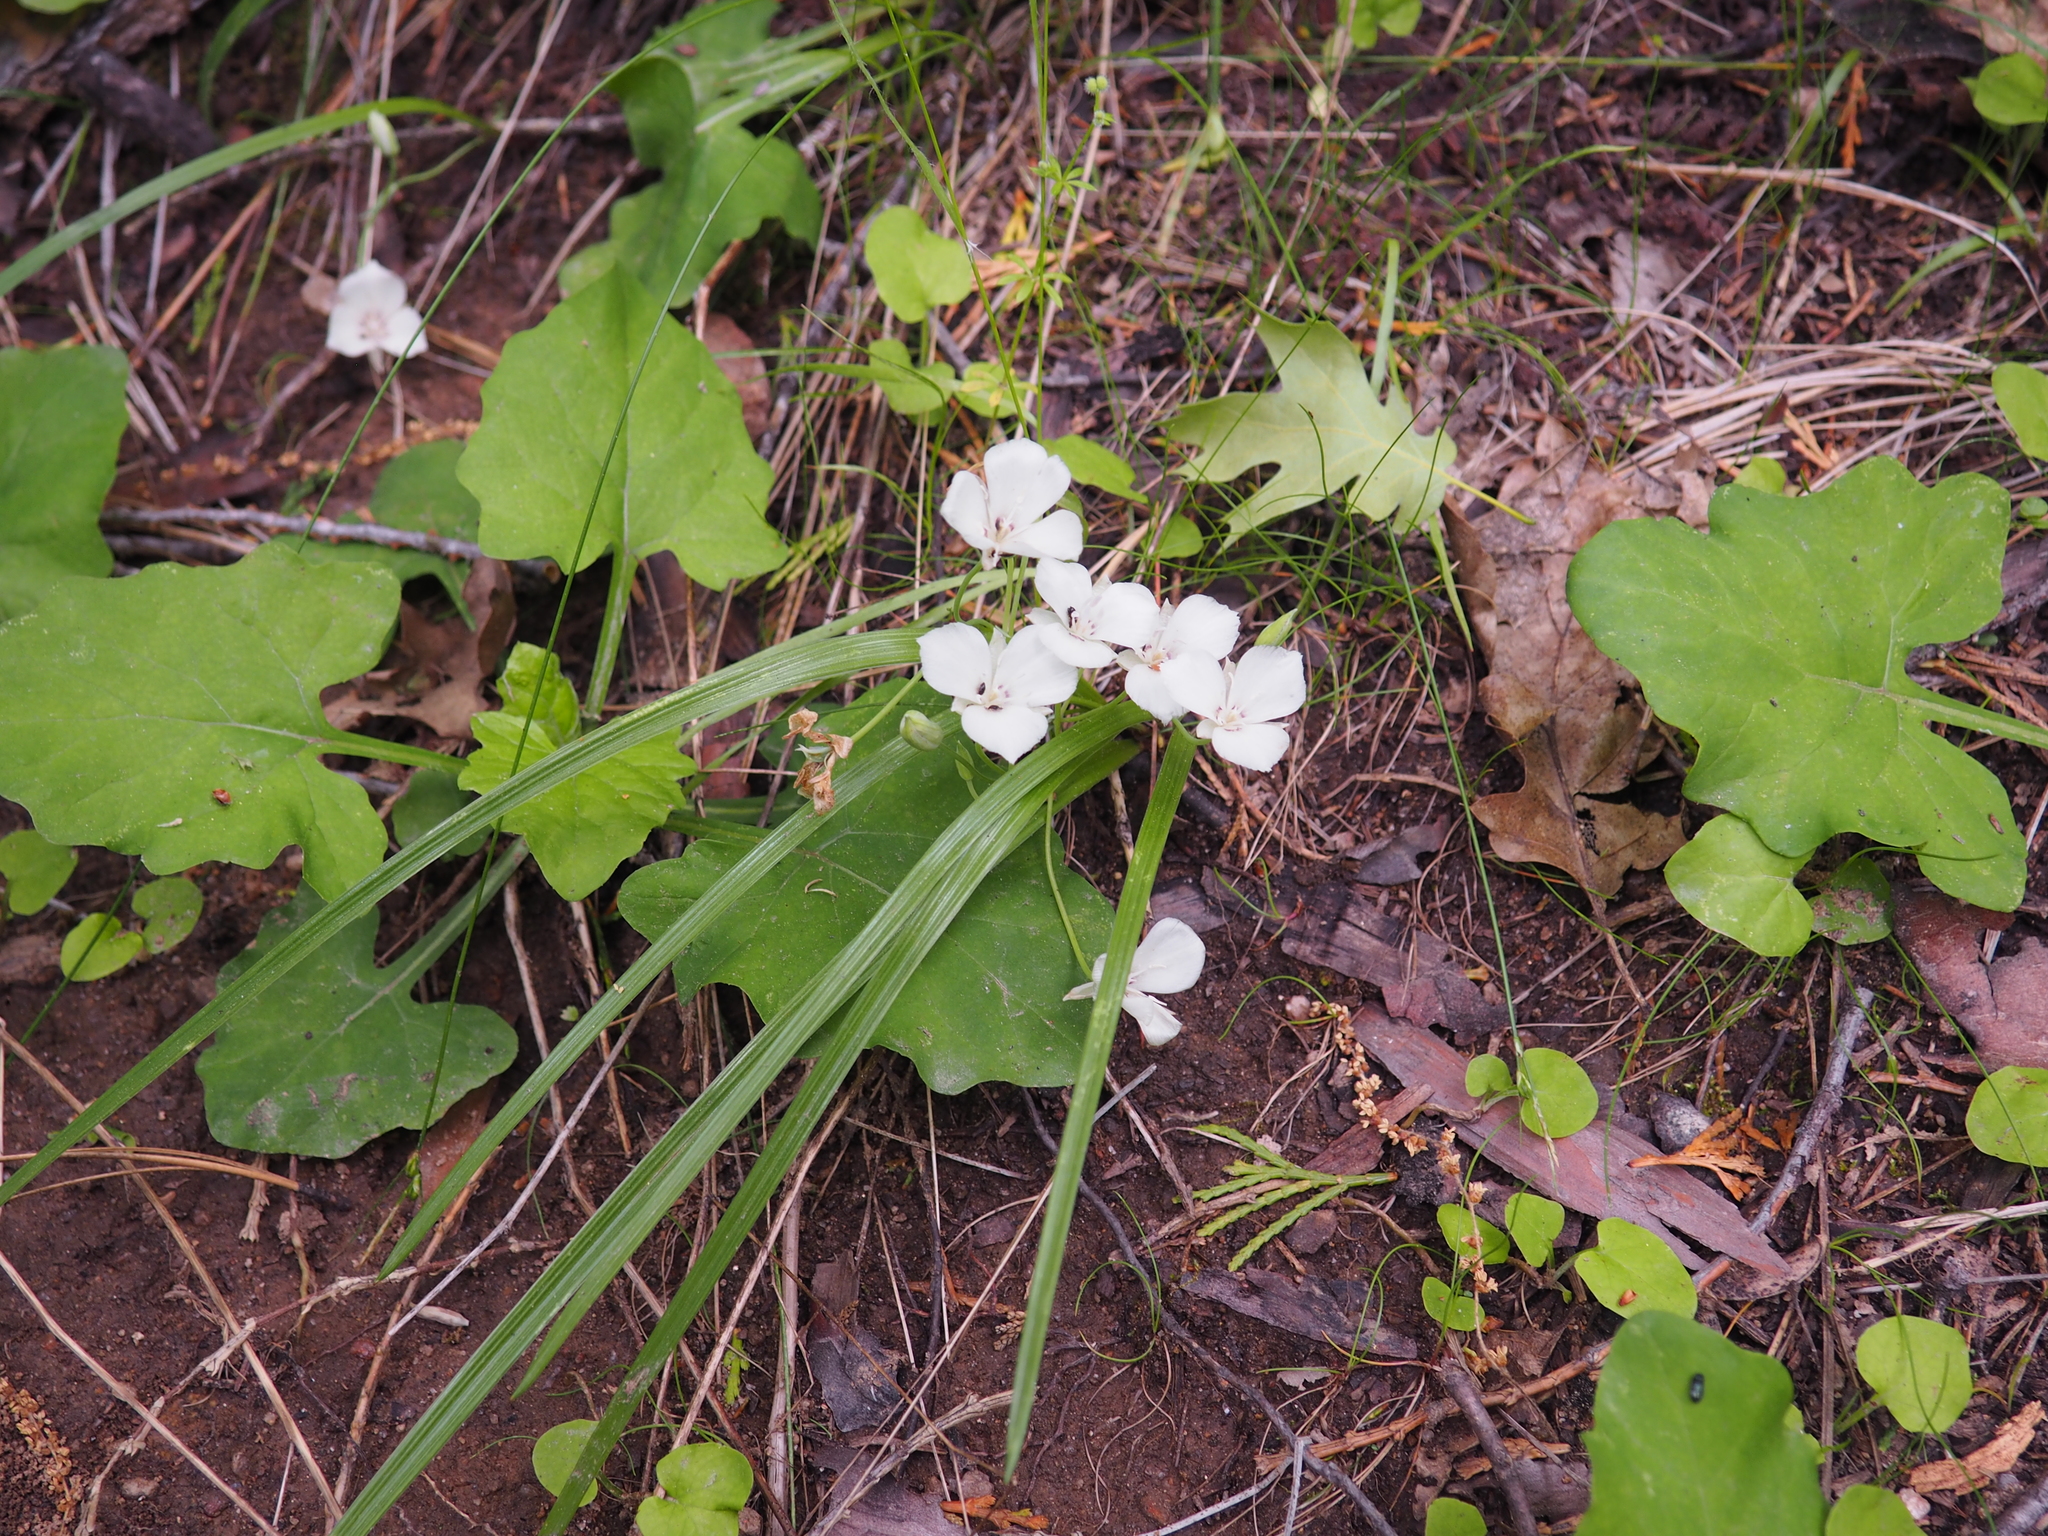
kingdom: Plantae
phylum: Tracheophyta
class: Liliopsida
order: Liliales
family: Liliaceae
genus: Calochortus
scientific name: Calochortus minimus
